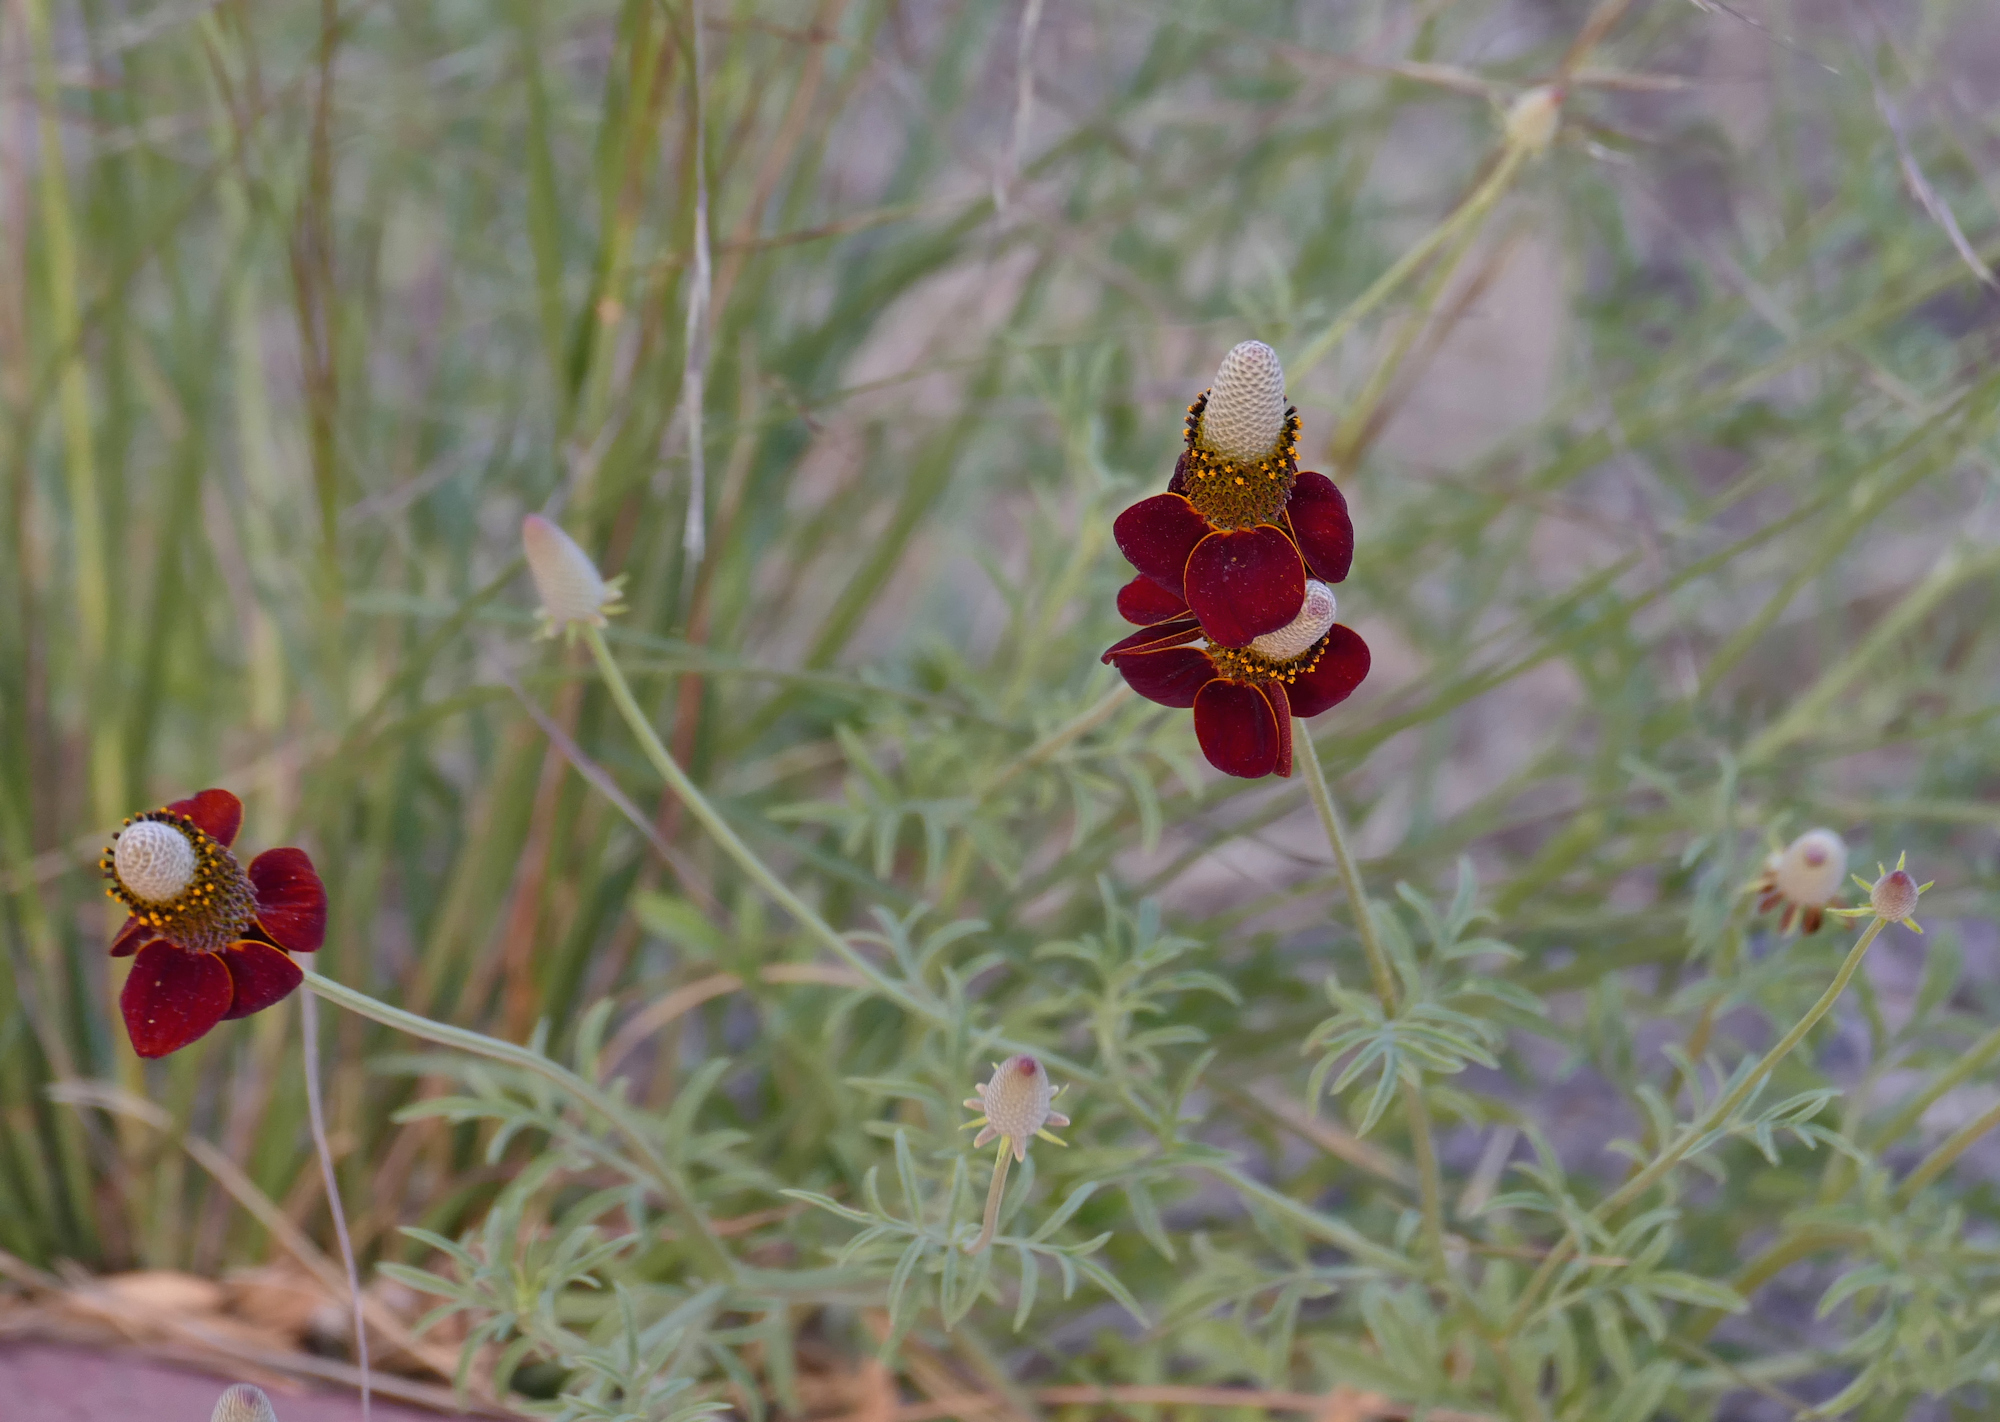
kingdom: Plantae
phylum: Tracheophyta
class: Magnoliopsida
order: Asterales
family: Asteraceae
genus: Ratibida
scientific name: Ratibida columnifera
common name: Prairie coneflower
